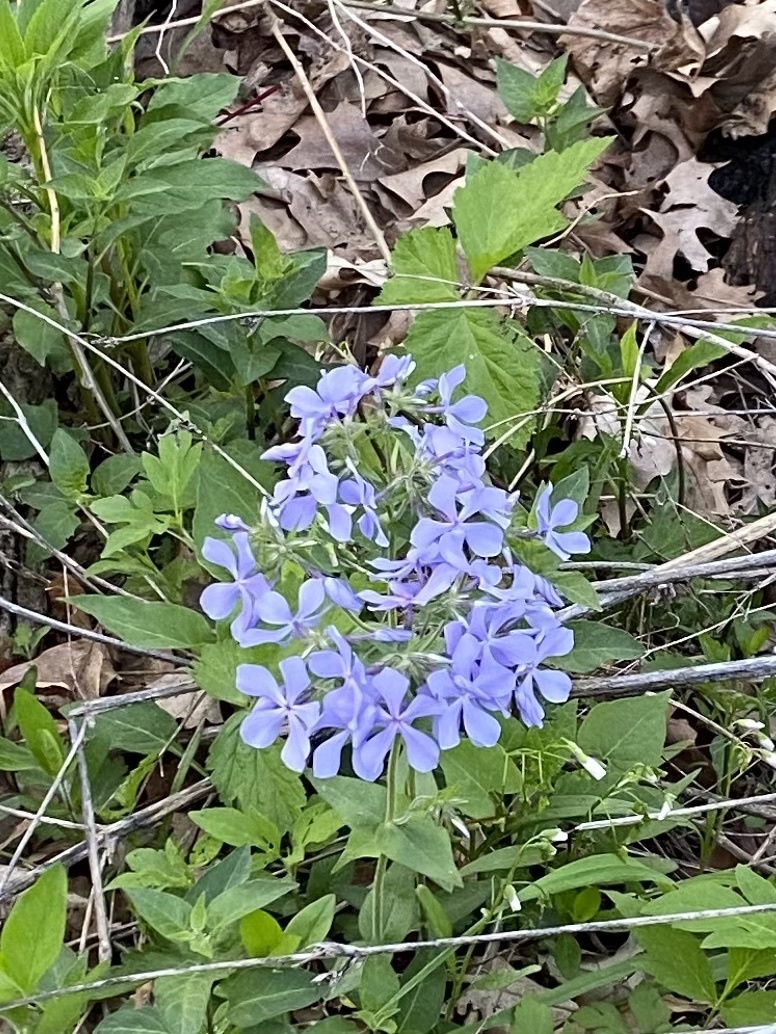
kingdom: Plantae
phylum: Tracheophyta
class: Magnoliopsida
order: Ericales
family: Polemoniaceae
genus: Phlox
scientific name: Phlox divaricata
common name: Blue phlox
